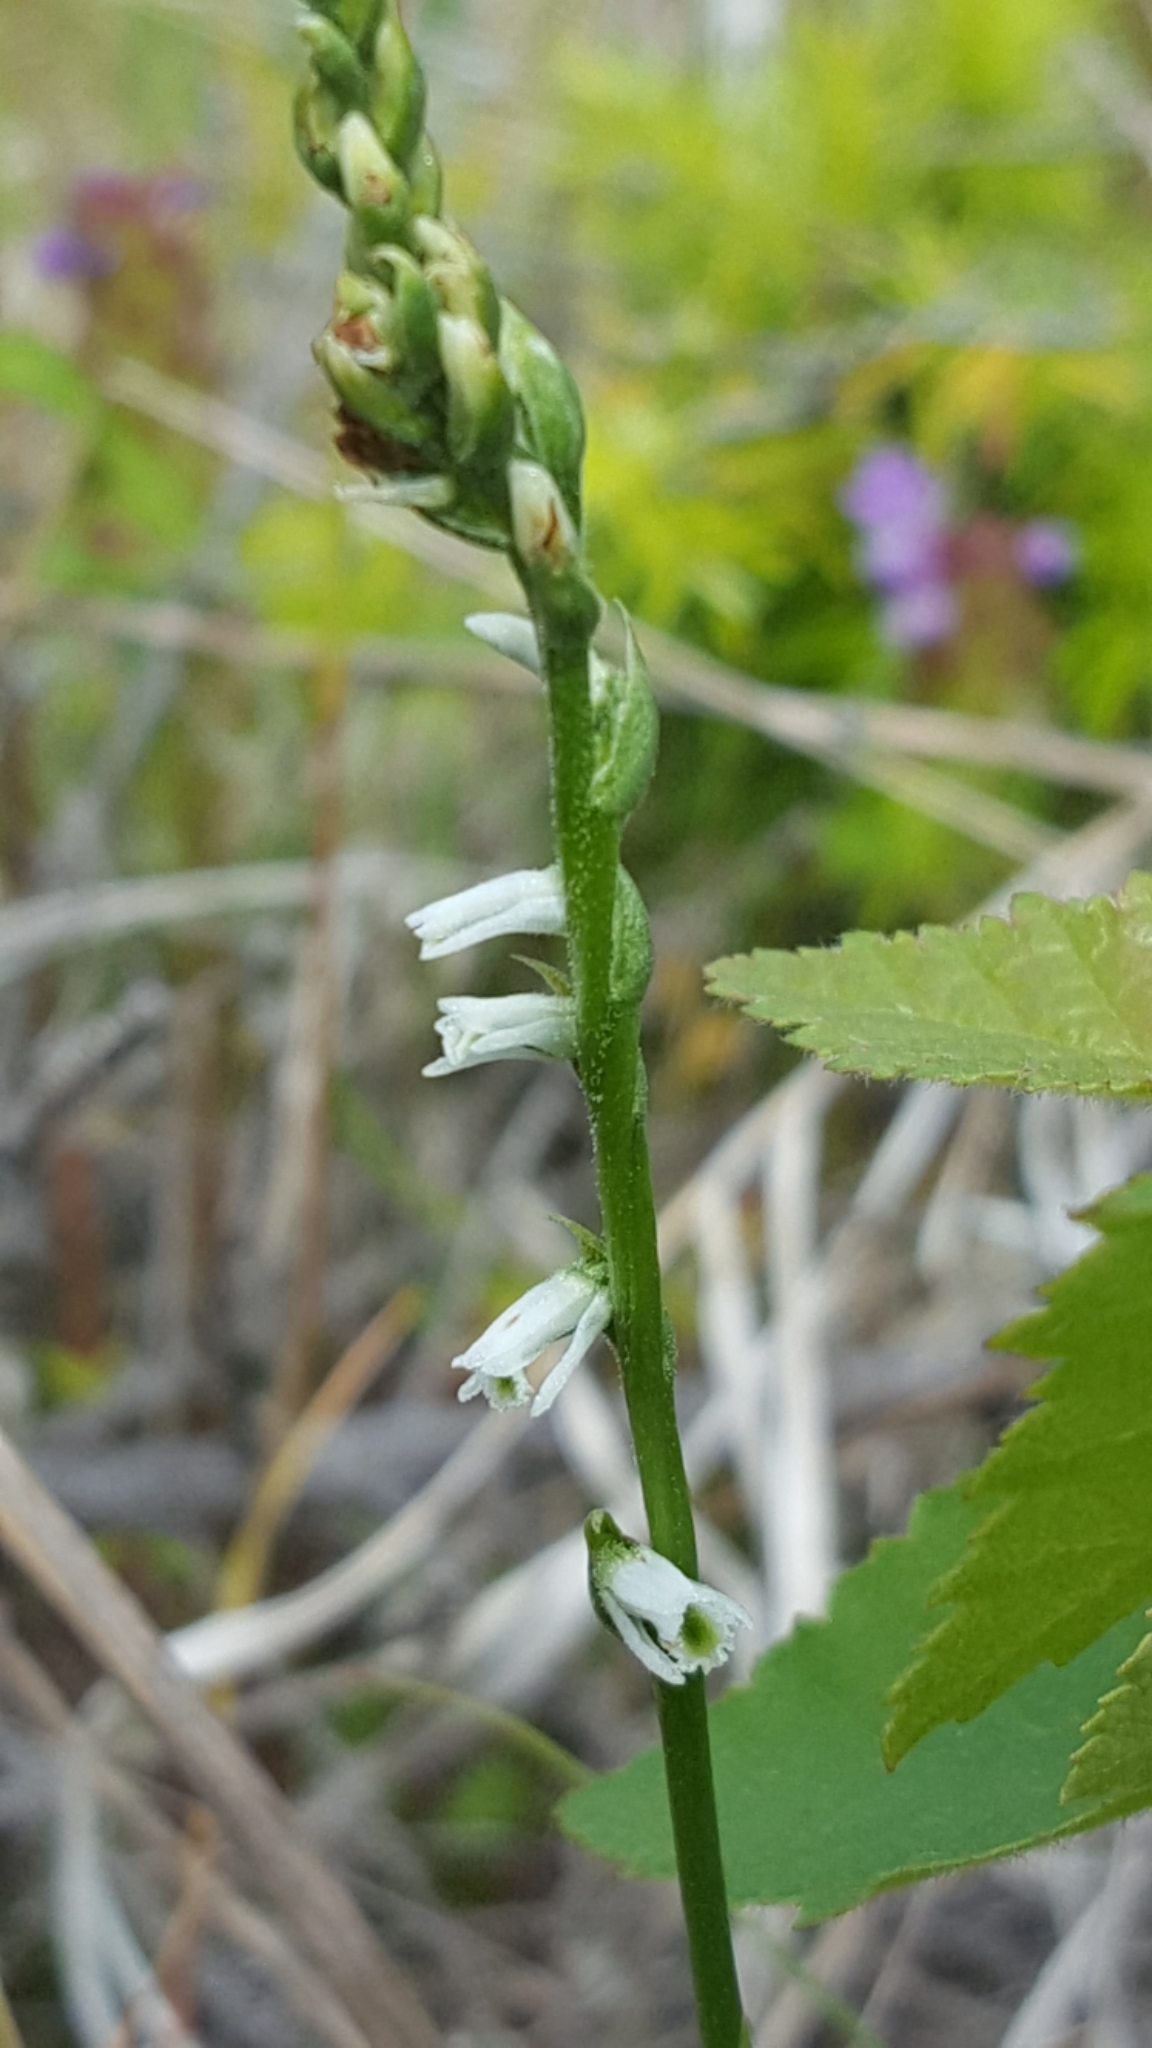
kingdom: Plantae
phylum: Tracheophyta
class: Liliopsida
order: Asparagales
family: Orchidaceae
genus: Spiranthes
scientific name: Spiranthes lacera
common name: Northern slender ladies'-tresses
